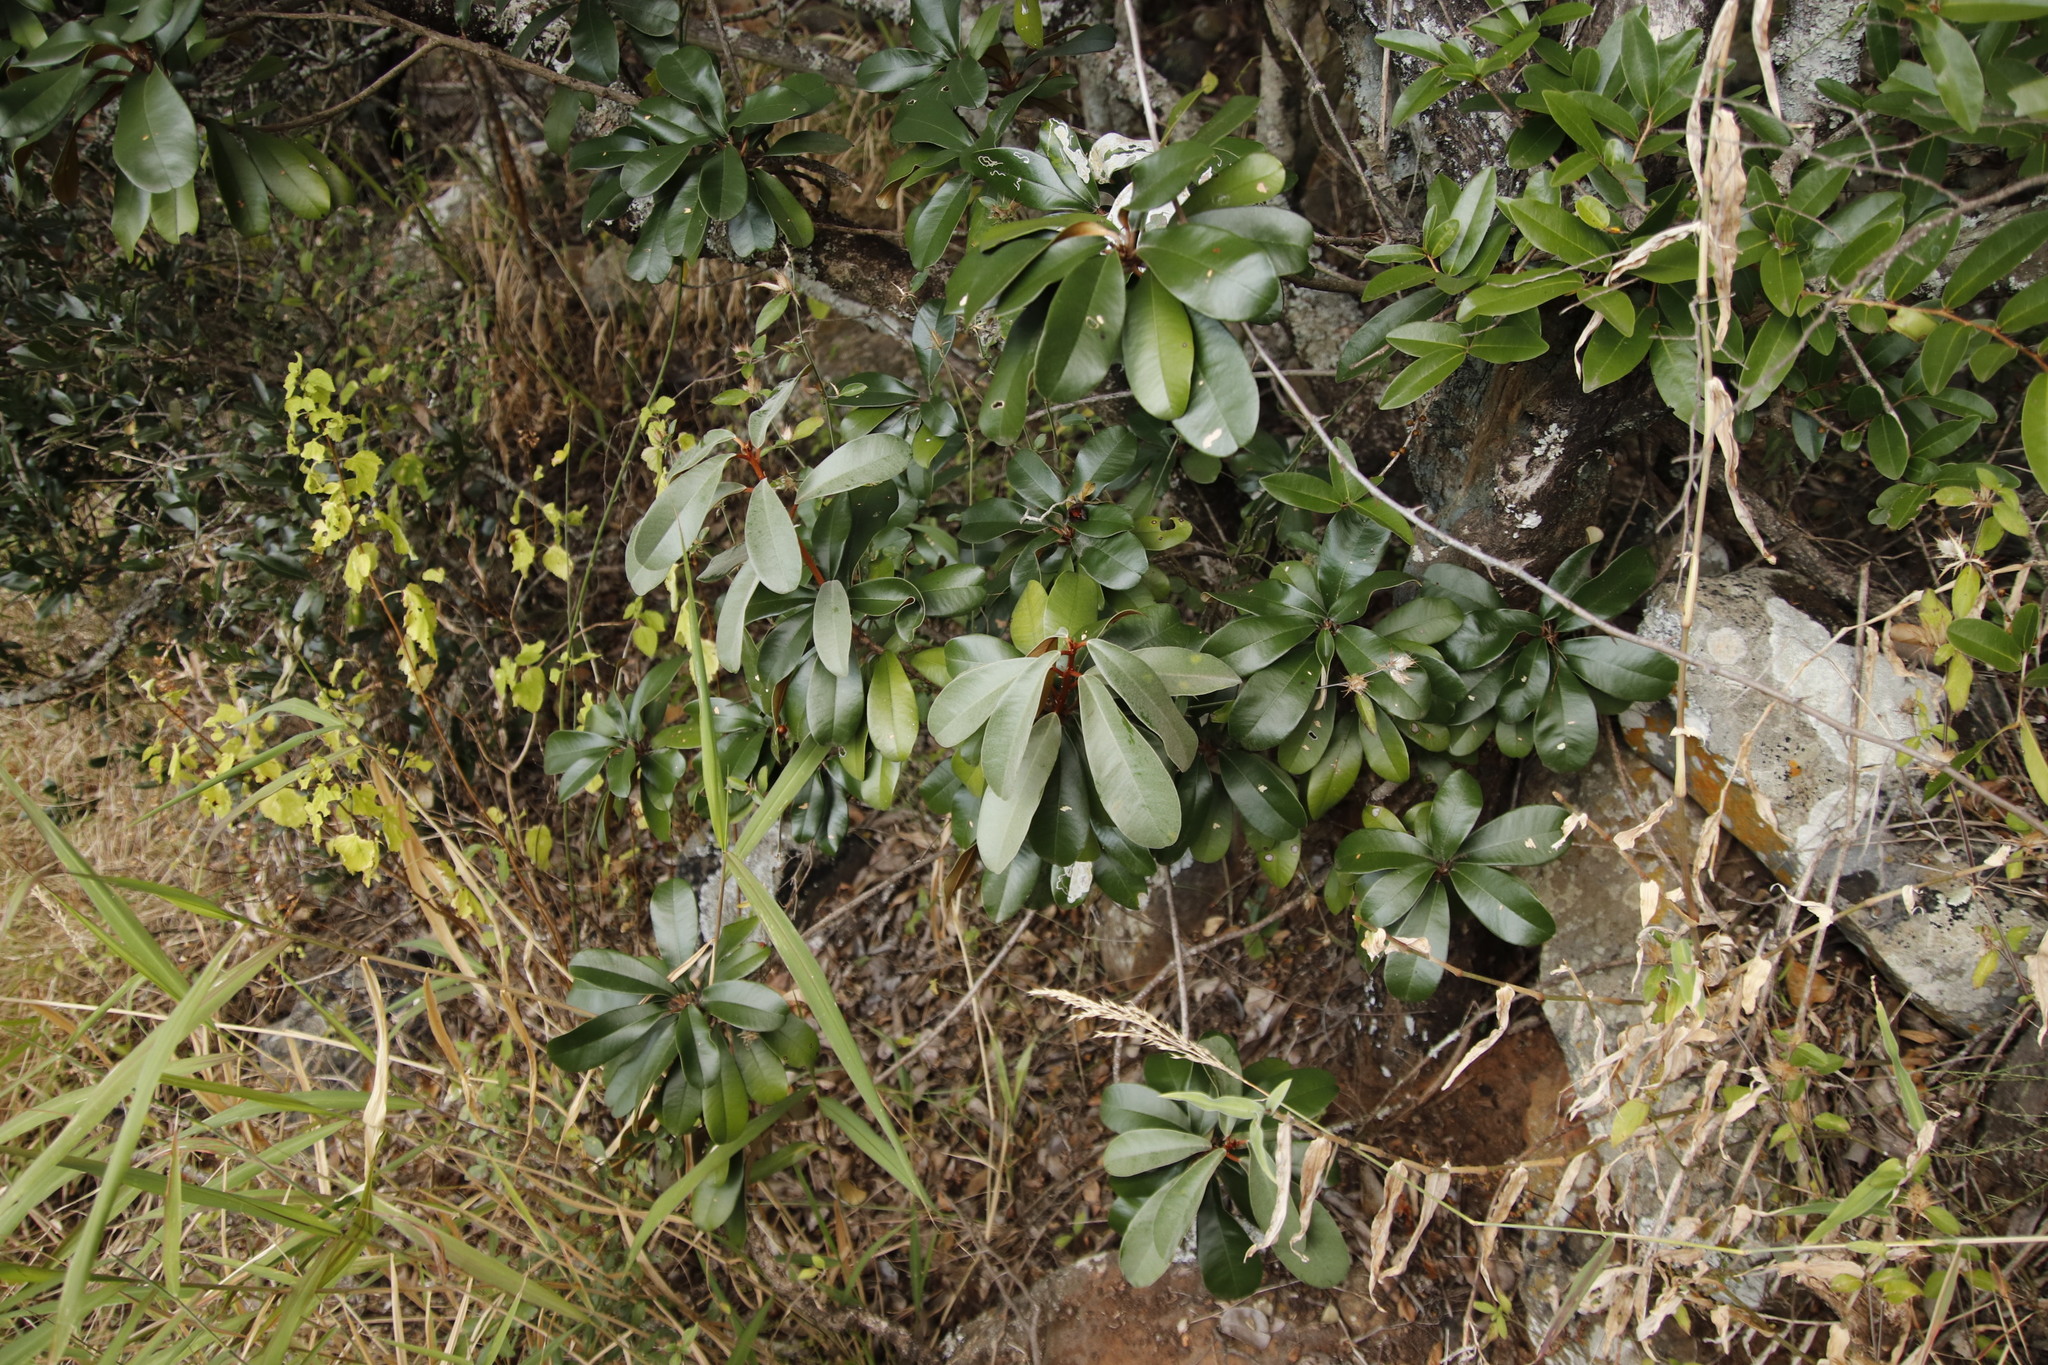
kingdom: Plantae
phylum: Tracheophyta
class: Magnoliopsida
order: Ericales
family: Sapotaceae
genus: Englerophytum
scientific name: Englerophytum magalismontanum
